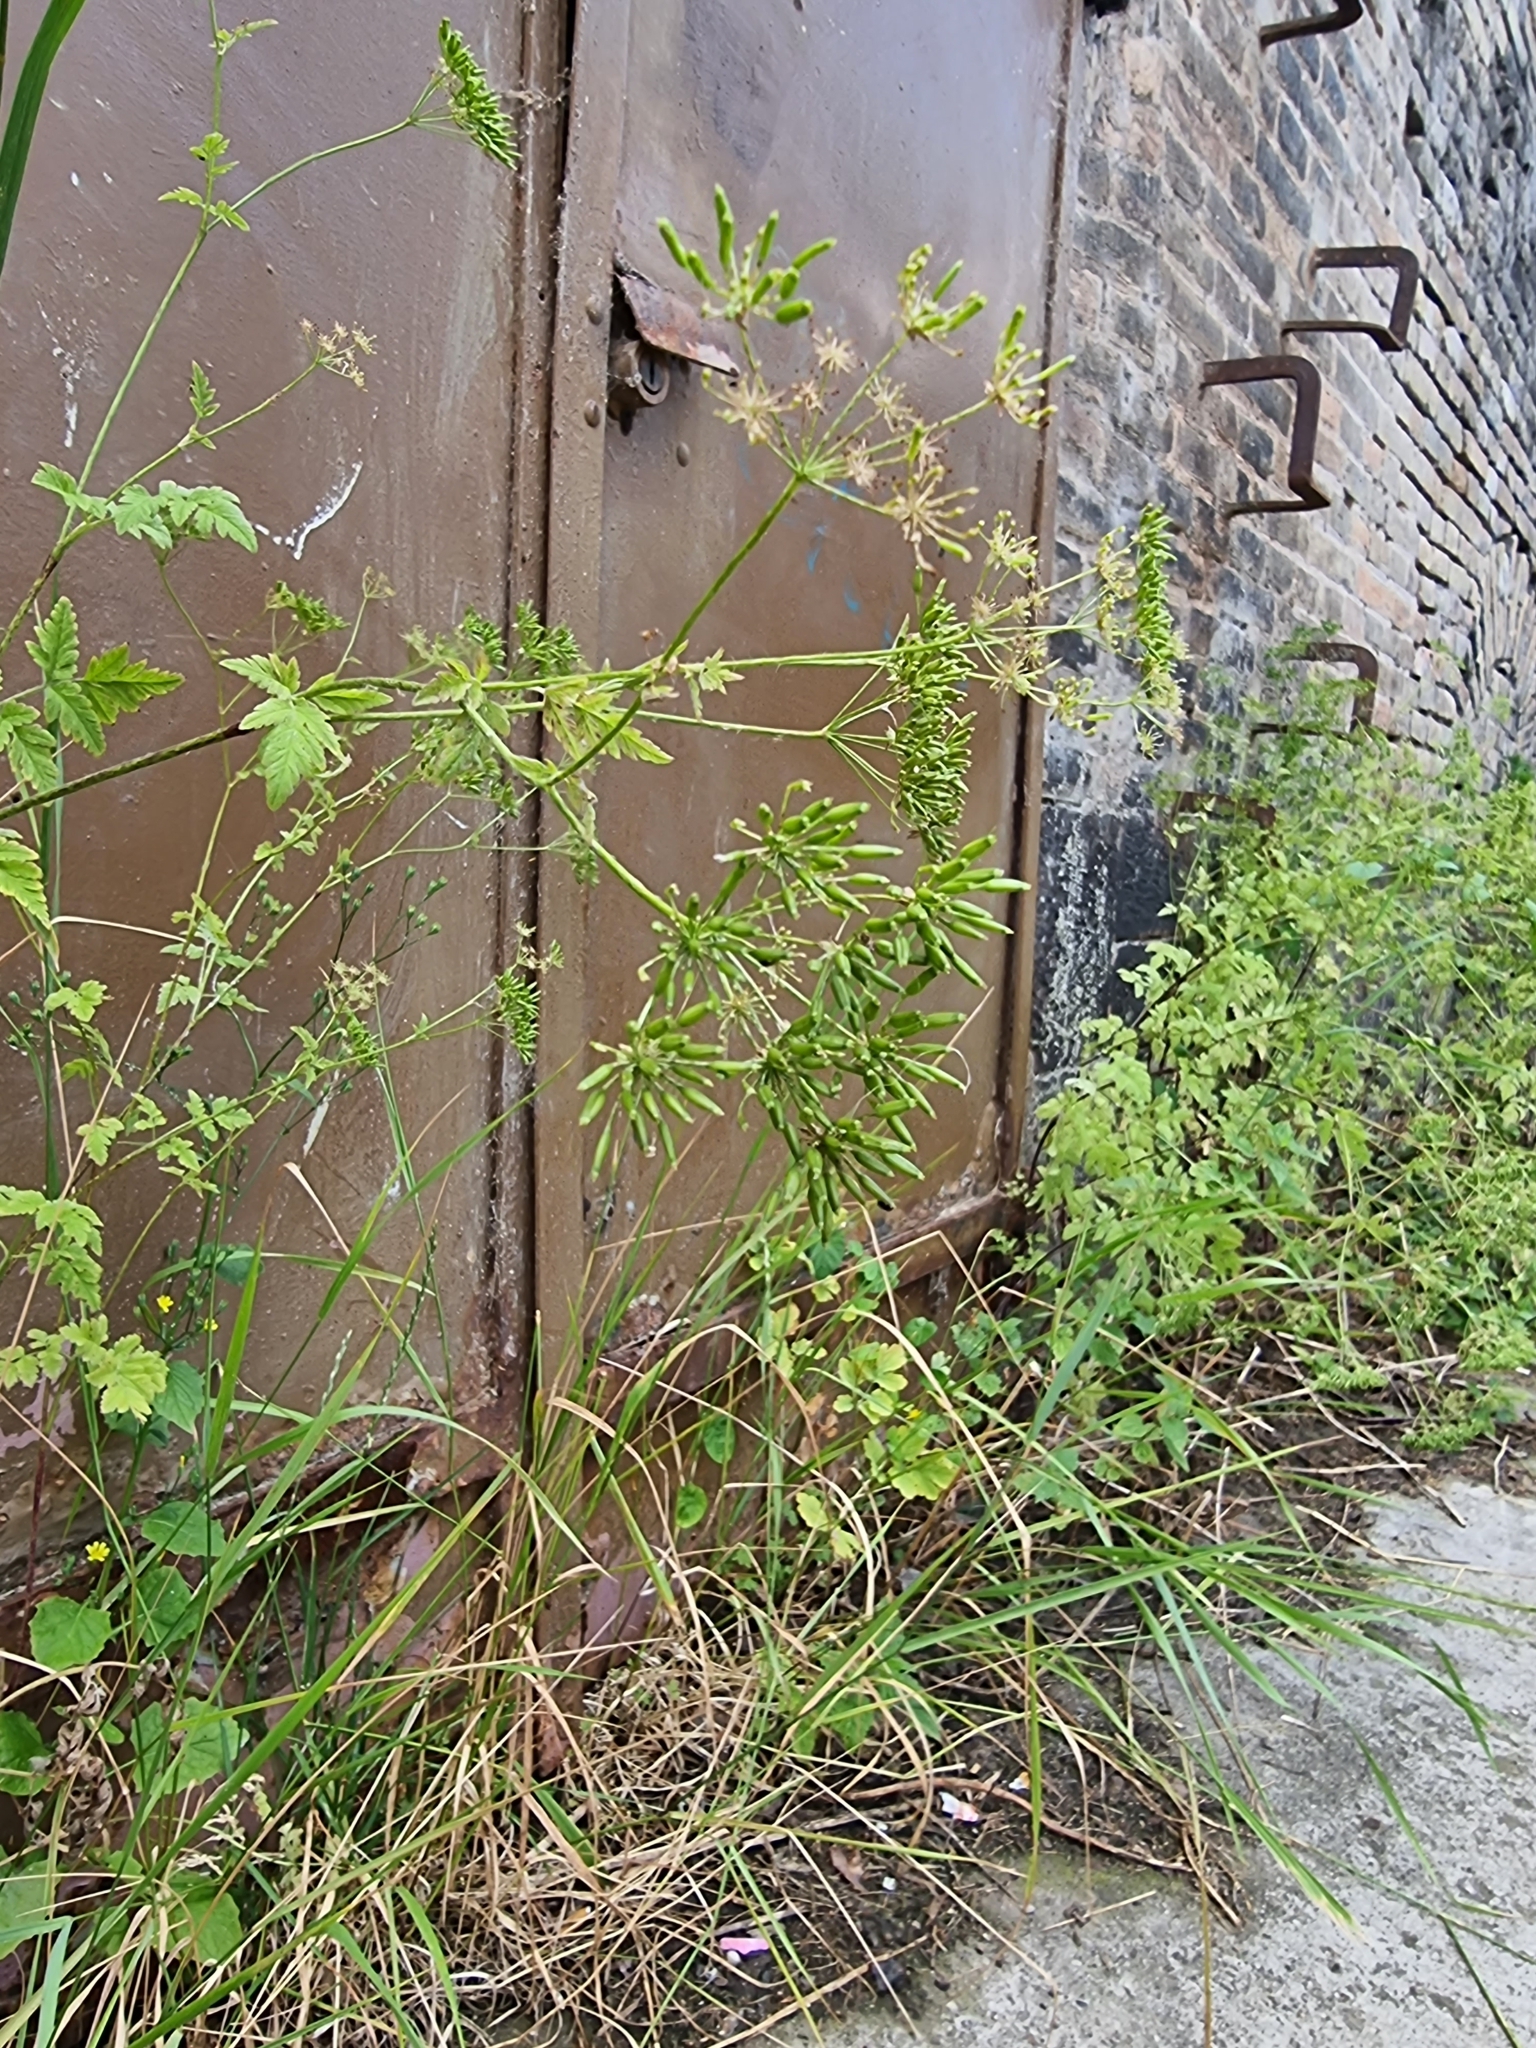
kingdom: Plantae
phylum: Tracheophyta
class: Magnoliopsida
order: Apiales
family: Apiaceae
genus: Chaerophyllum
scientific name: Chaerophyllum temulum
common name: Rough chervil
